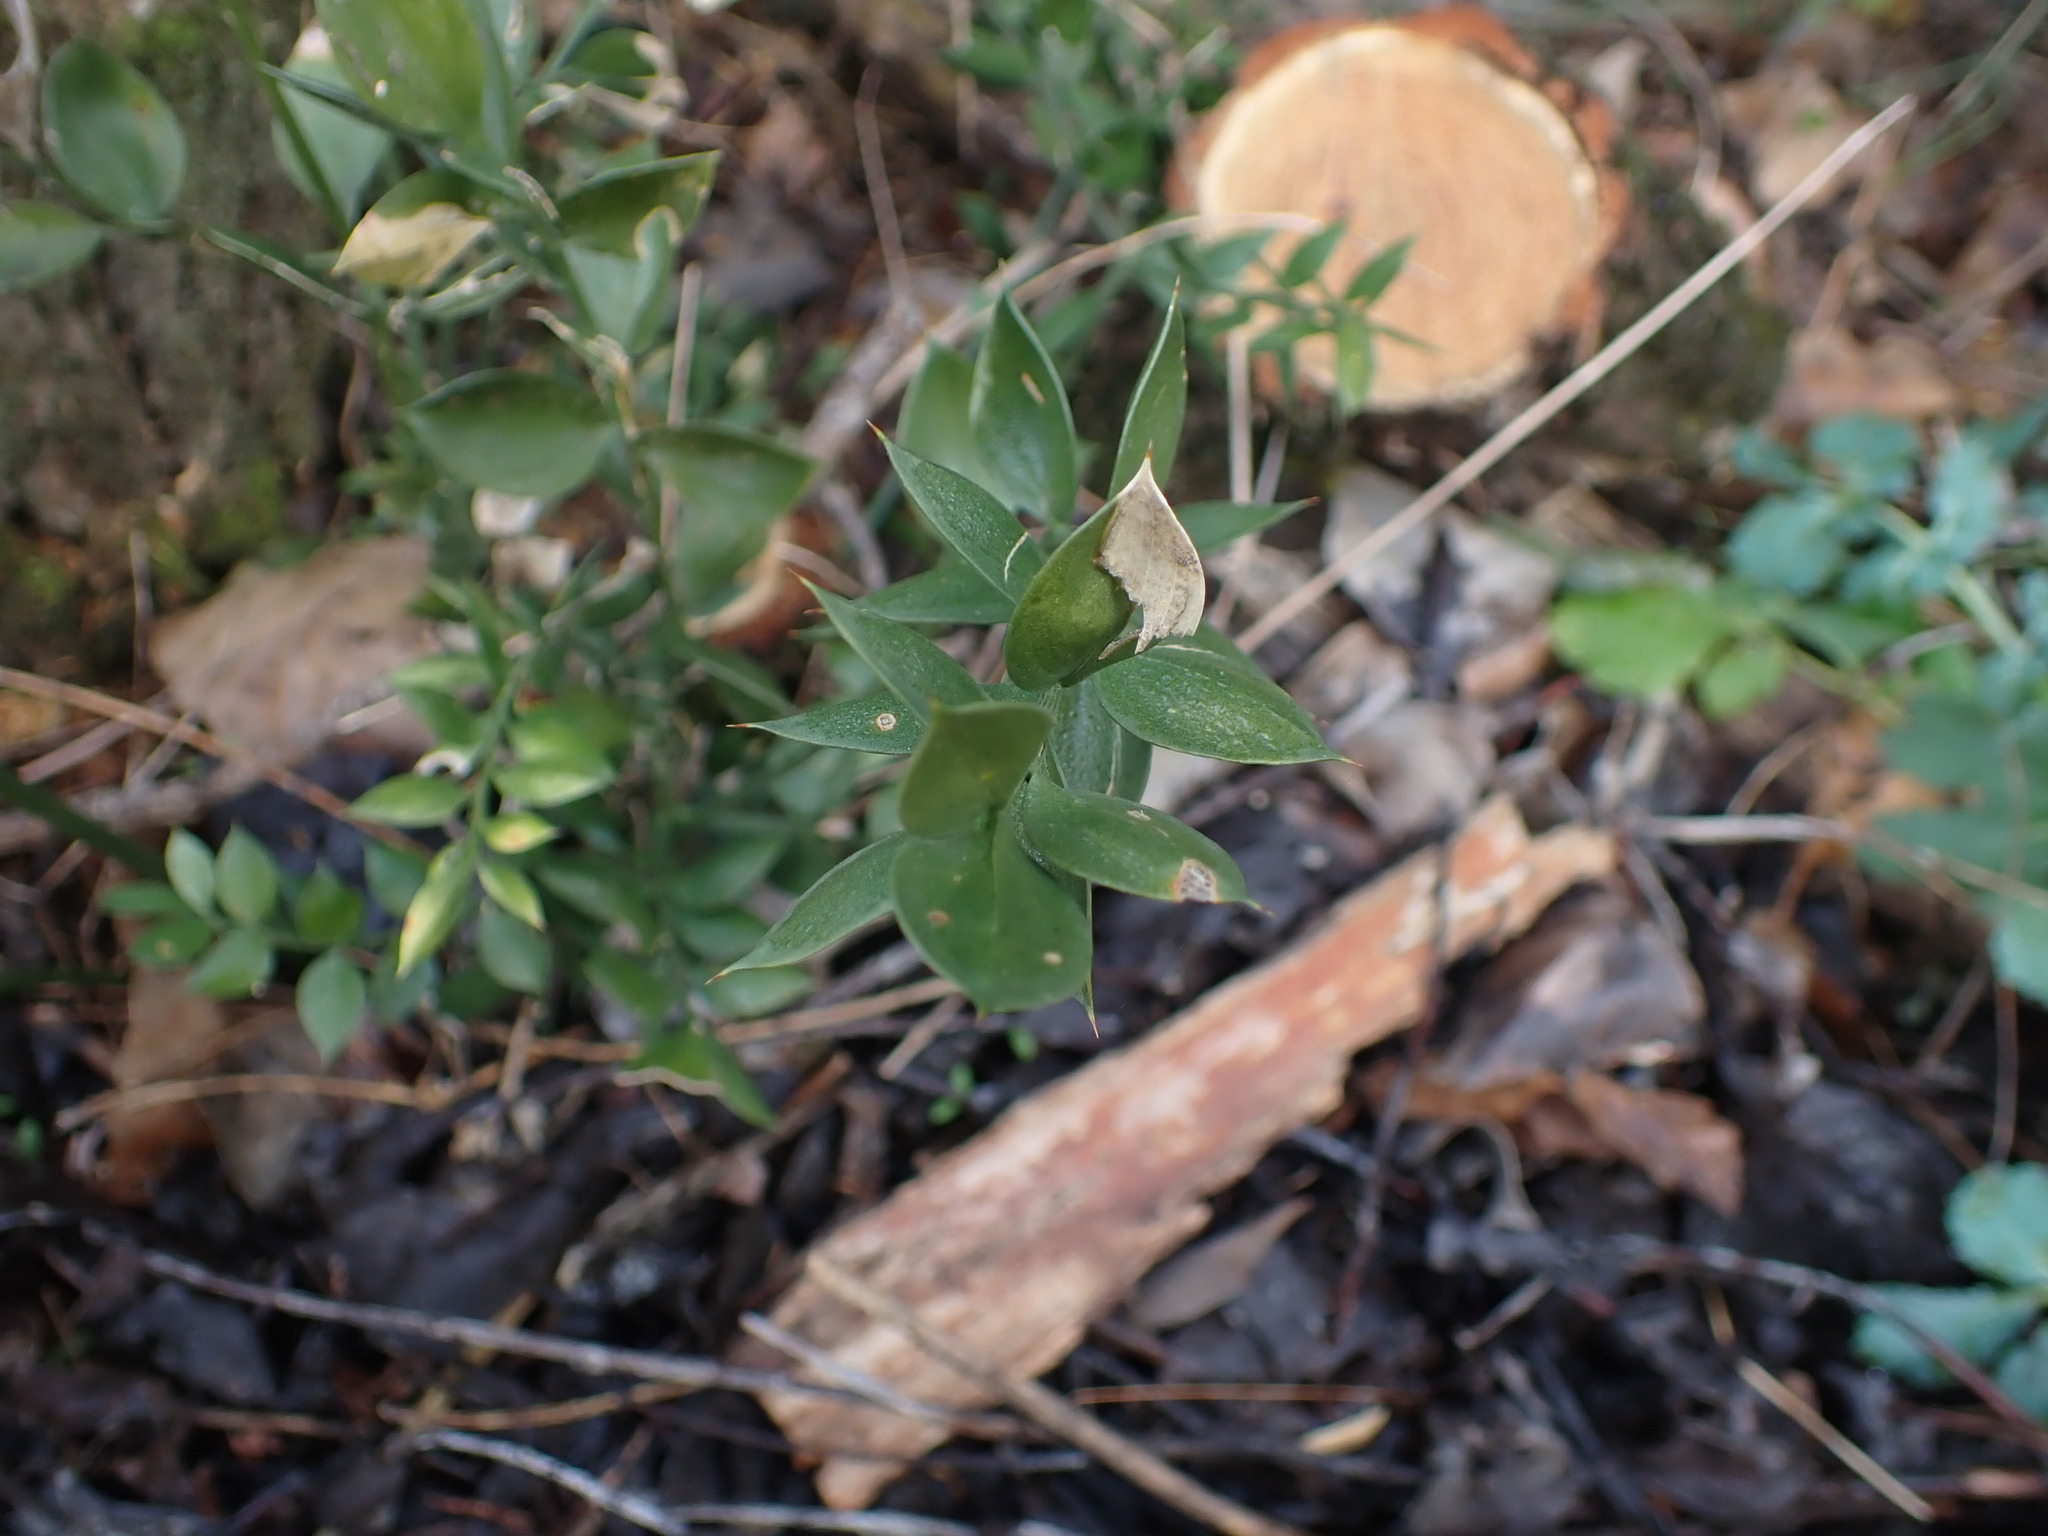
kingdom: Plantae
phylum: Tracheophyta
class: Liliopsida
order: Asparagales
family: Asparagaceae
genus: Ruscus
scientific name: Ruscus aculeatus
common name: Butcher's-broom
